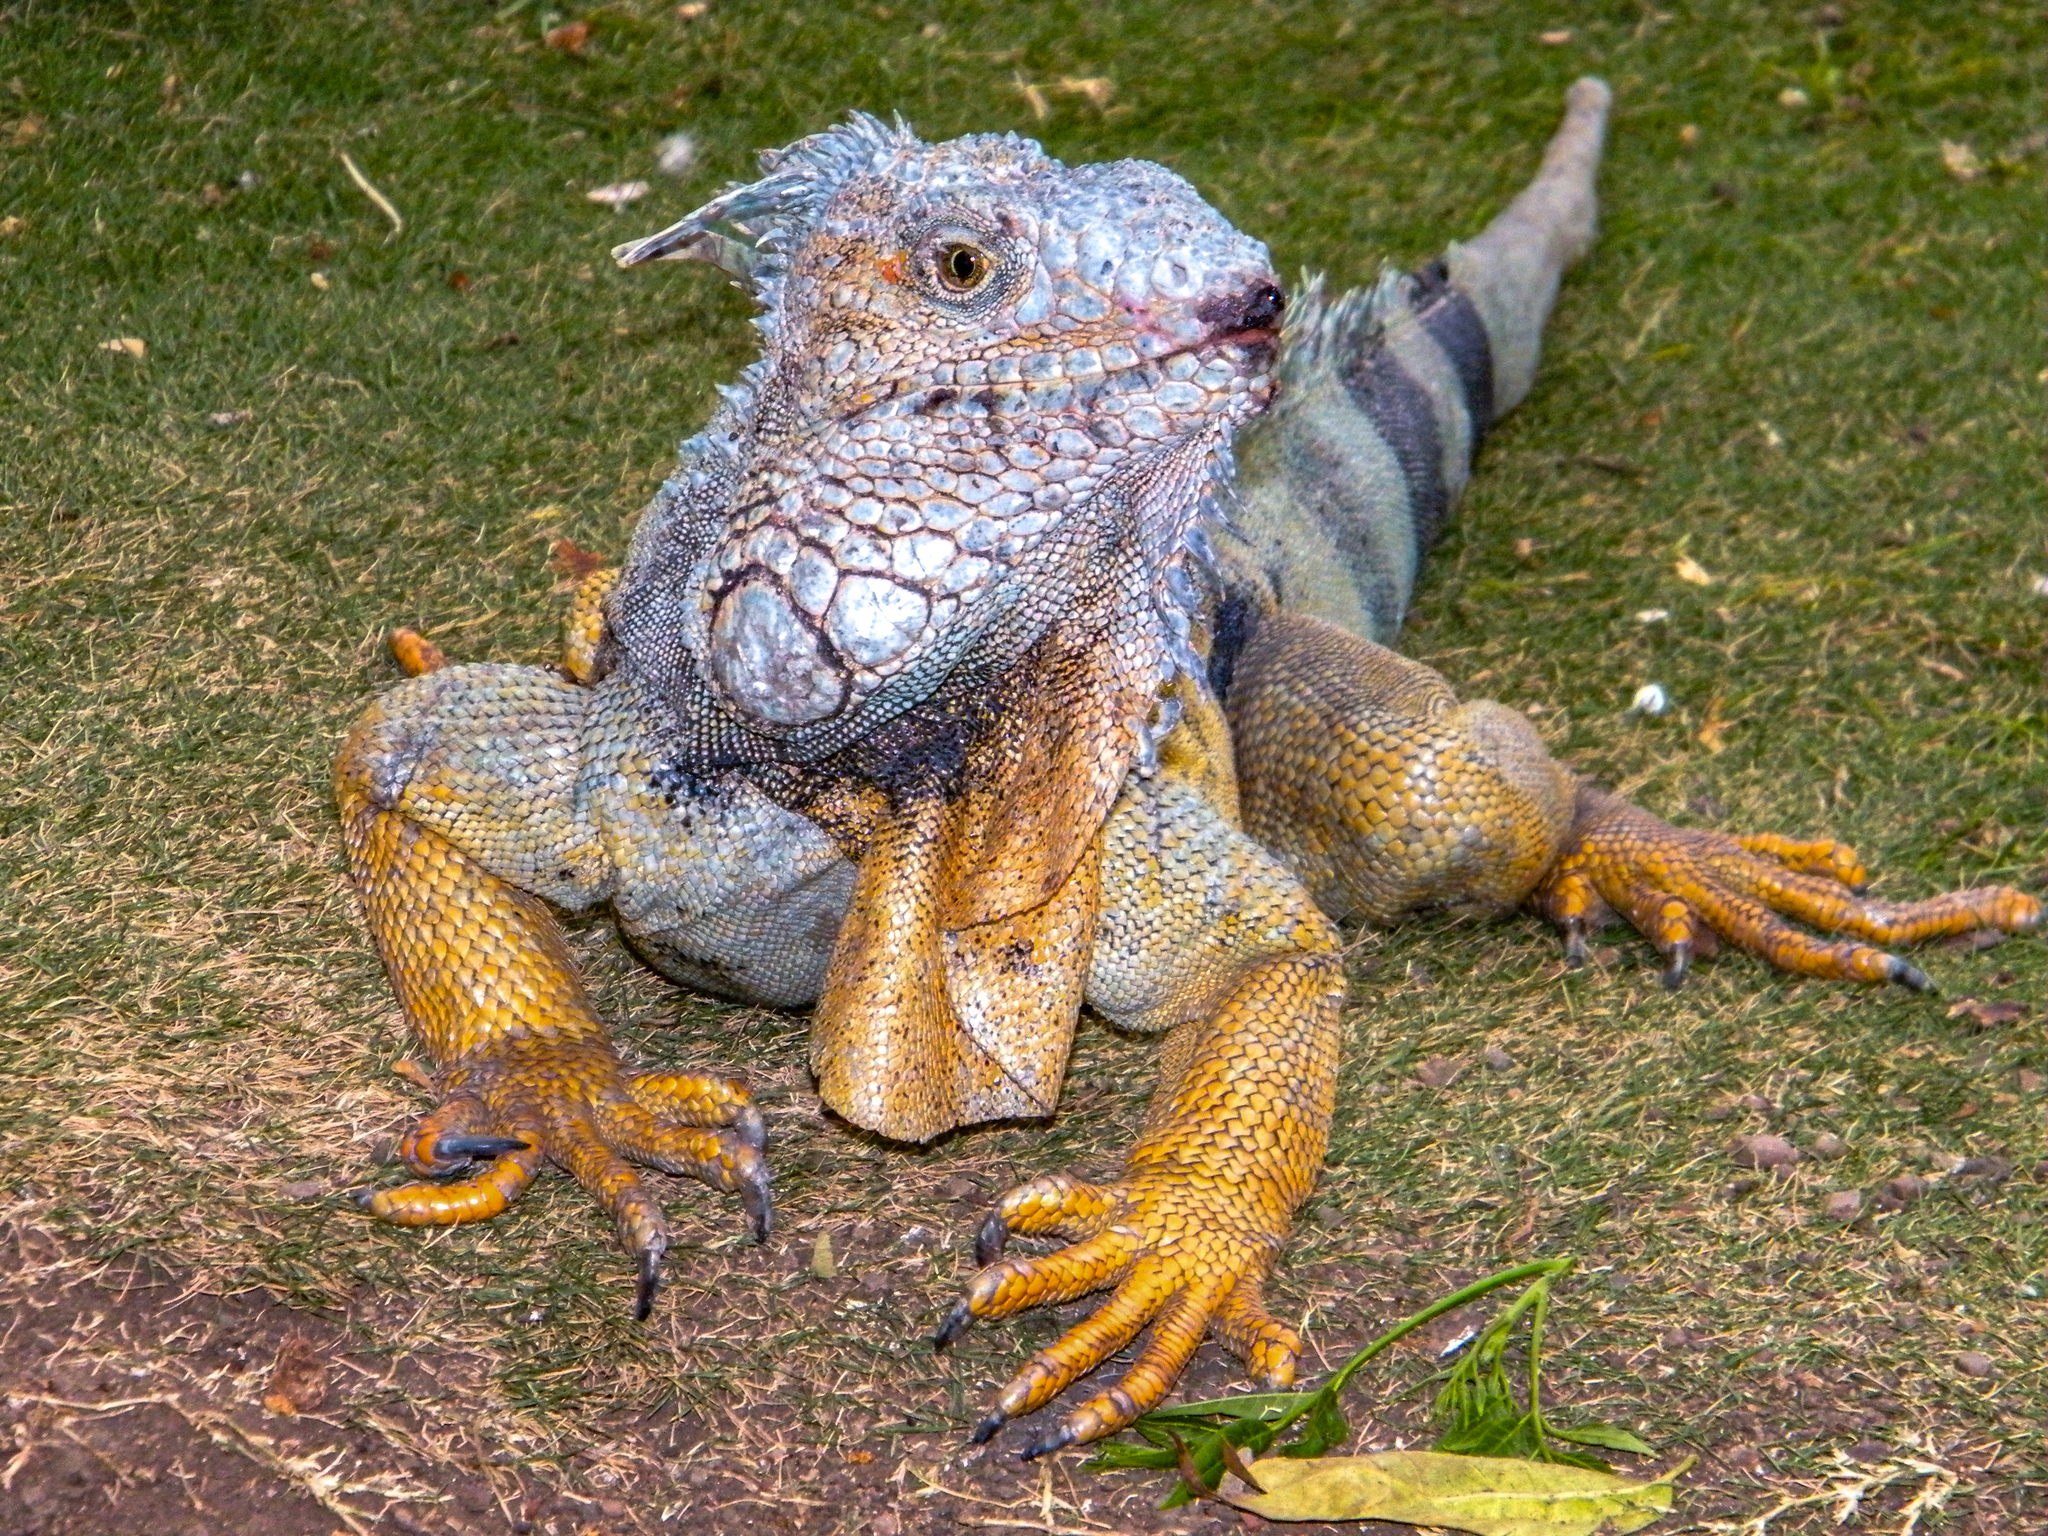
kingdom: Animalia
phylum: Chordata
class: Squamata
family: Iguanidae
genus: Iguana
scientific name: Iguana iguana
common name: Green iguana
